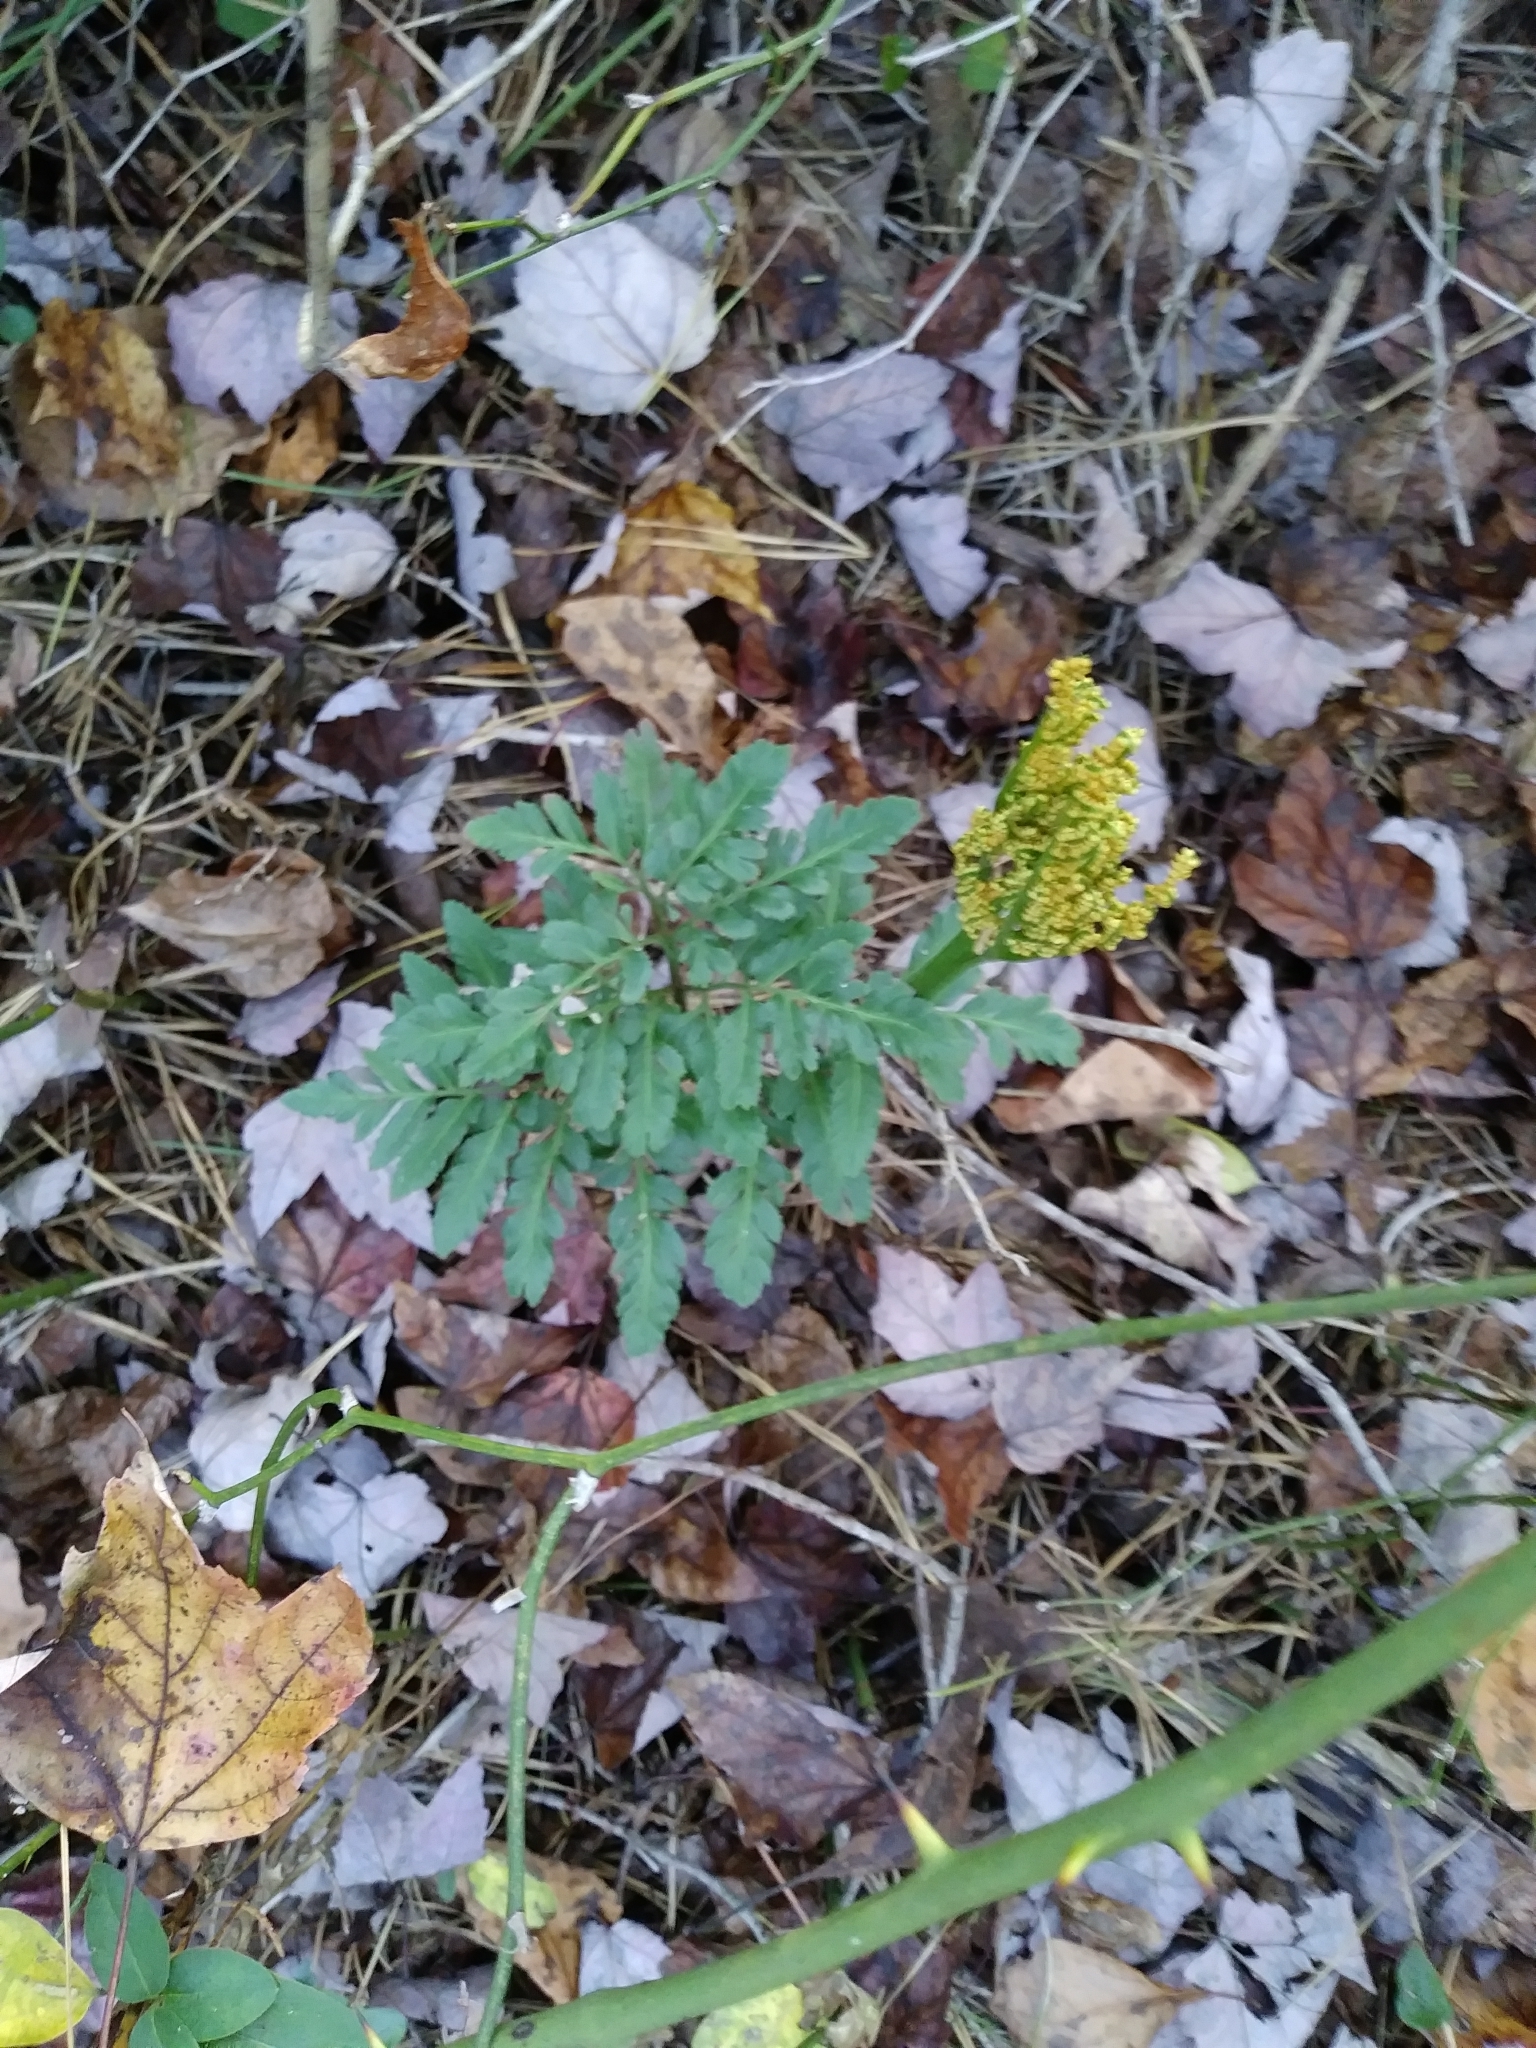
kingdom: Plantae
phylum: Tracheophyta
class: Polypodiopsida
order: Ophioglossales
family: Ophioglossaceae
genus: Sceptridium
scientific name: Sceptridium dissectum
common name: Cut-leaved grapefern
